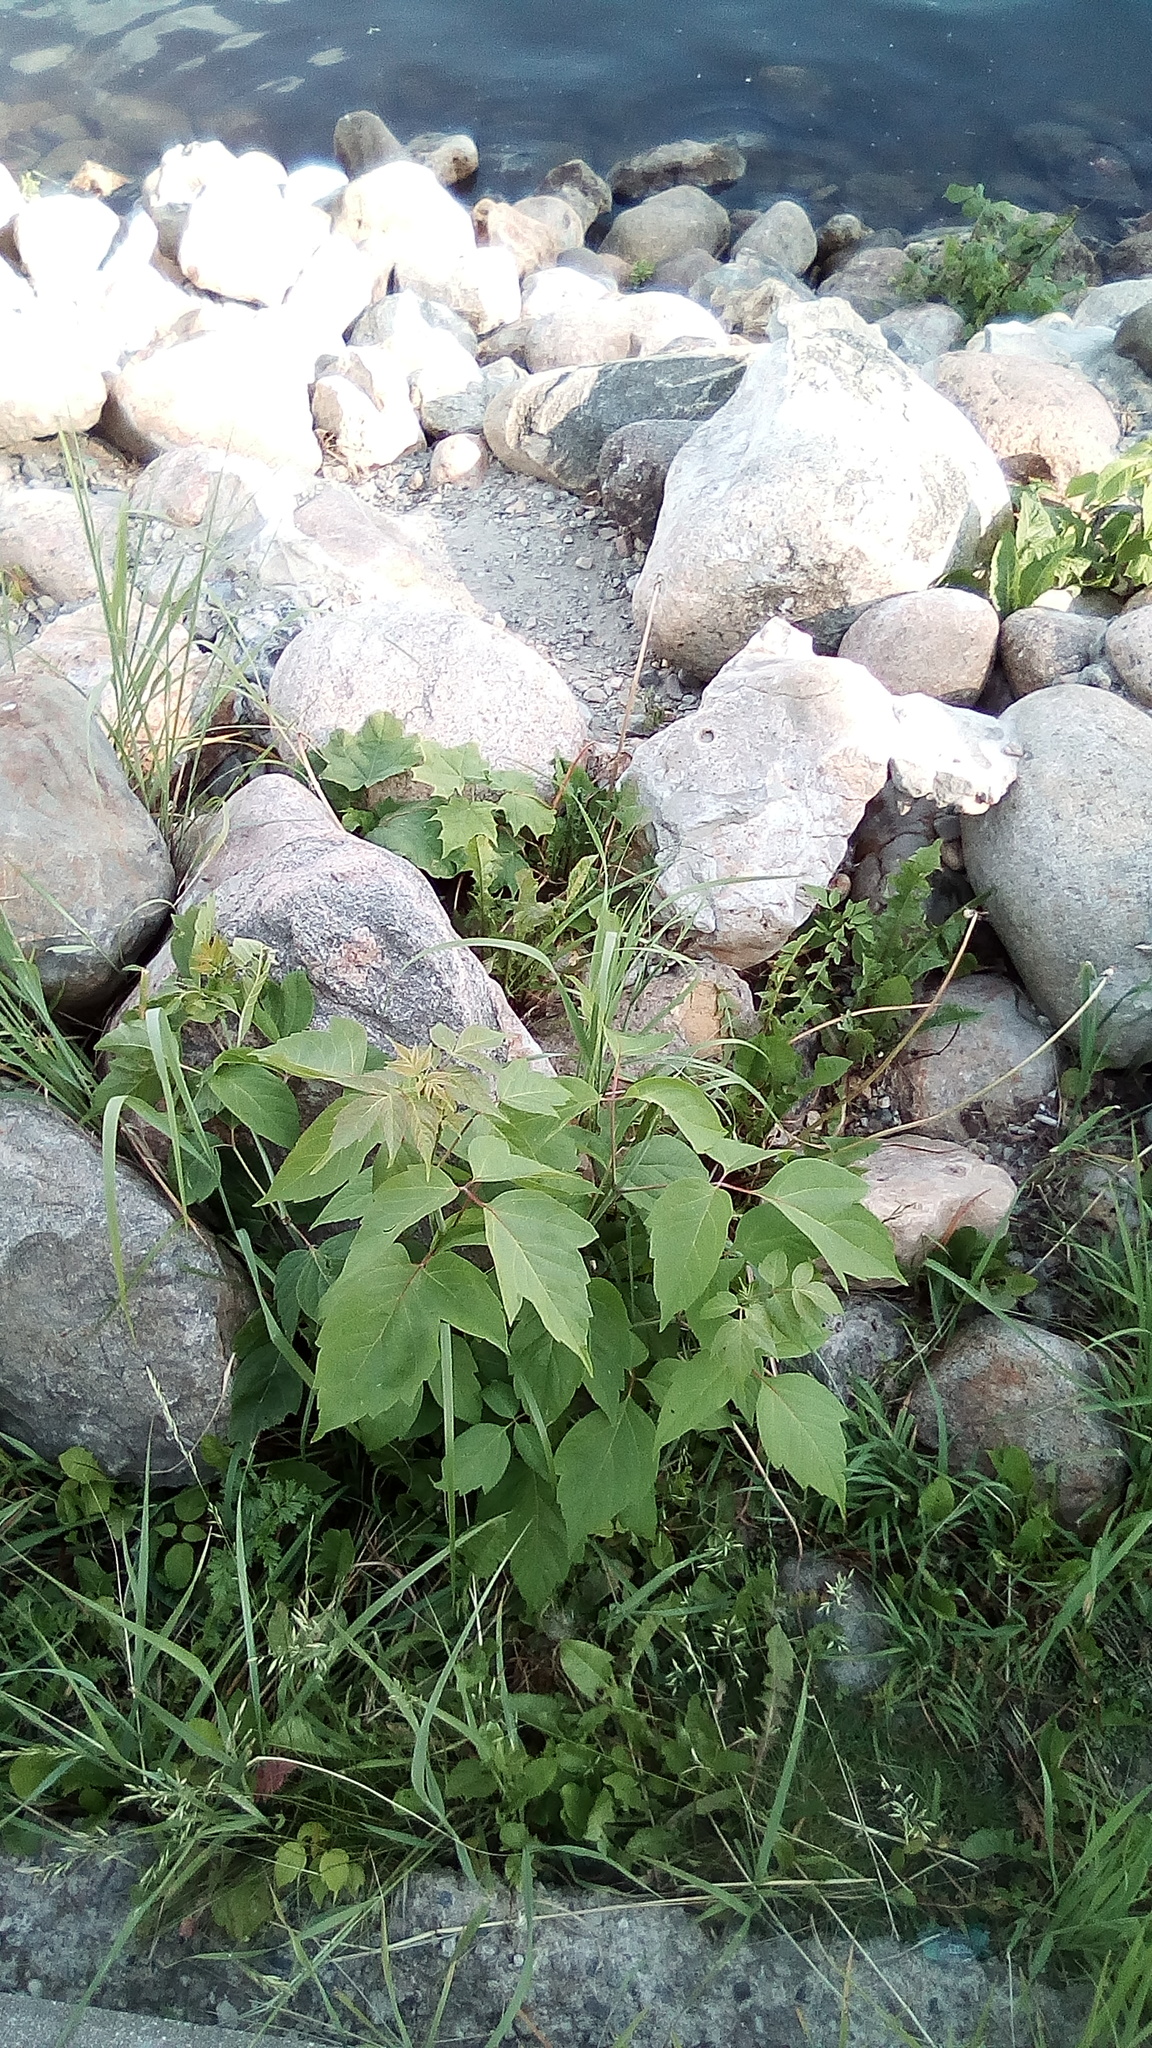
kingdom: Plantae
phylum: Tracheophyta
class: Magnoliopsida
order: Sapindales
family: Sapindaceae
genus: Acer
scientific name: Acer negundo
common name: Ashleaf maple
